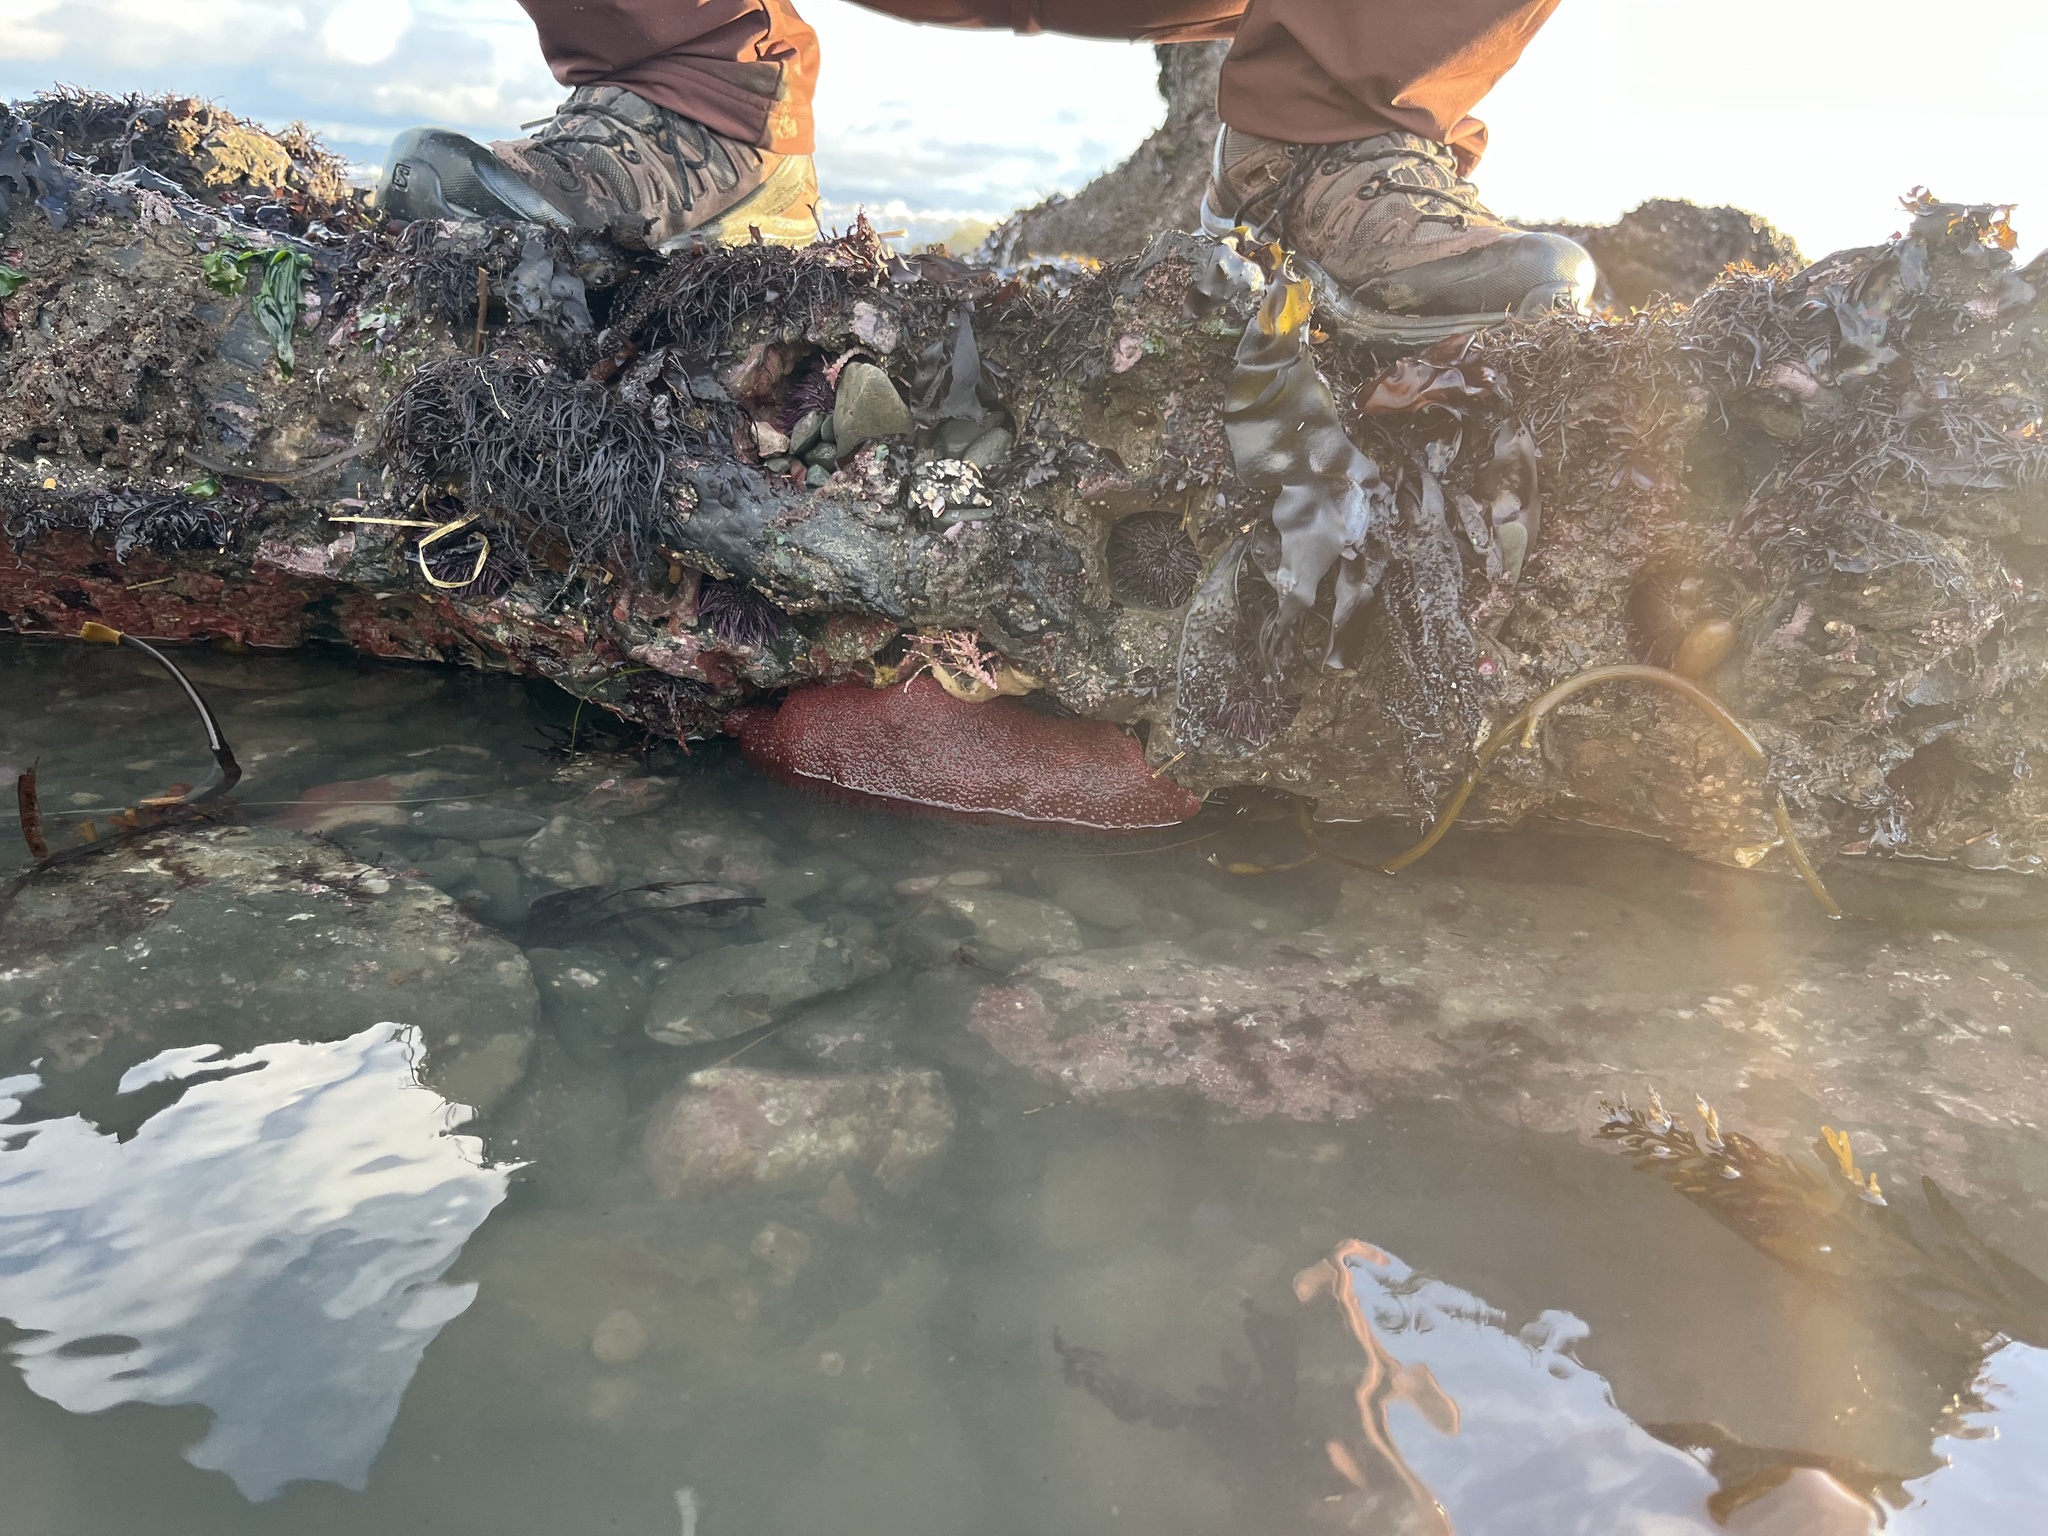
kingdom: Animalia
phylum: Mollusca
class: Polyplacophora
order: Chitonida
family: Acanthochitonidae
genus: Cryptochiton
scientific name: Cryptochiton stelleri
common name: Giant pacific chiton
